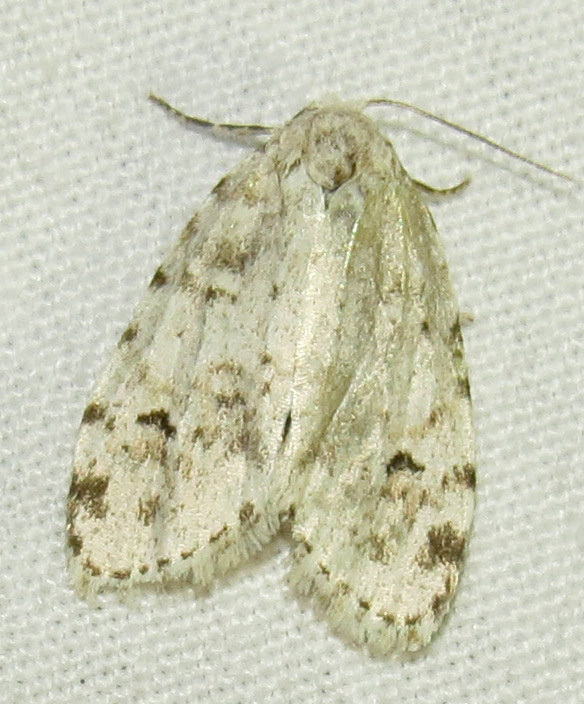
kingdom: Animalia
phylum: Arthropoda
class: Insecta
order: Lepidoptera
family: Erebidae
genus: Clemensia
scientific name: Clemensia albata
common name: Little white lichen moth
